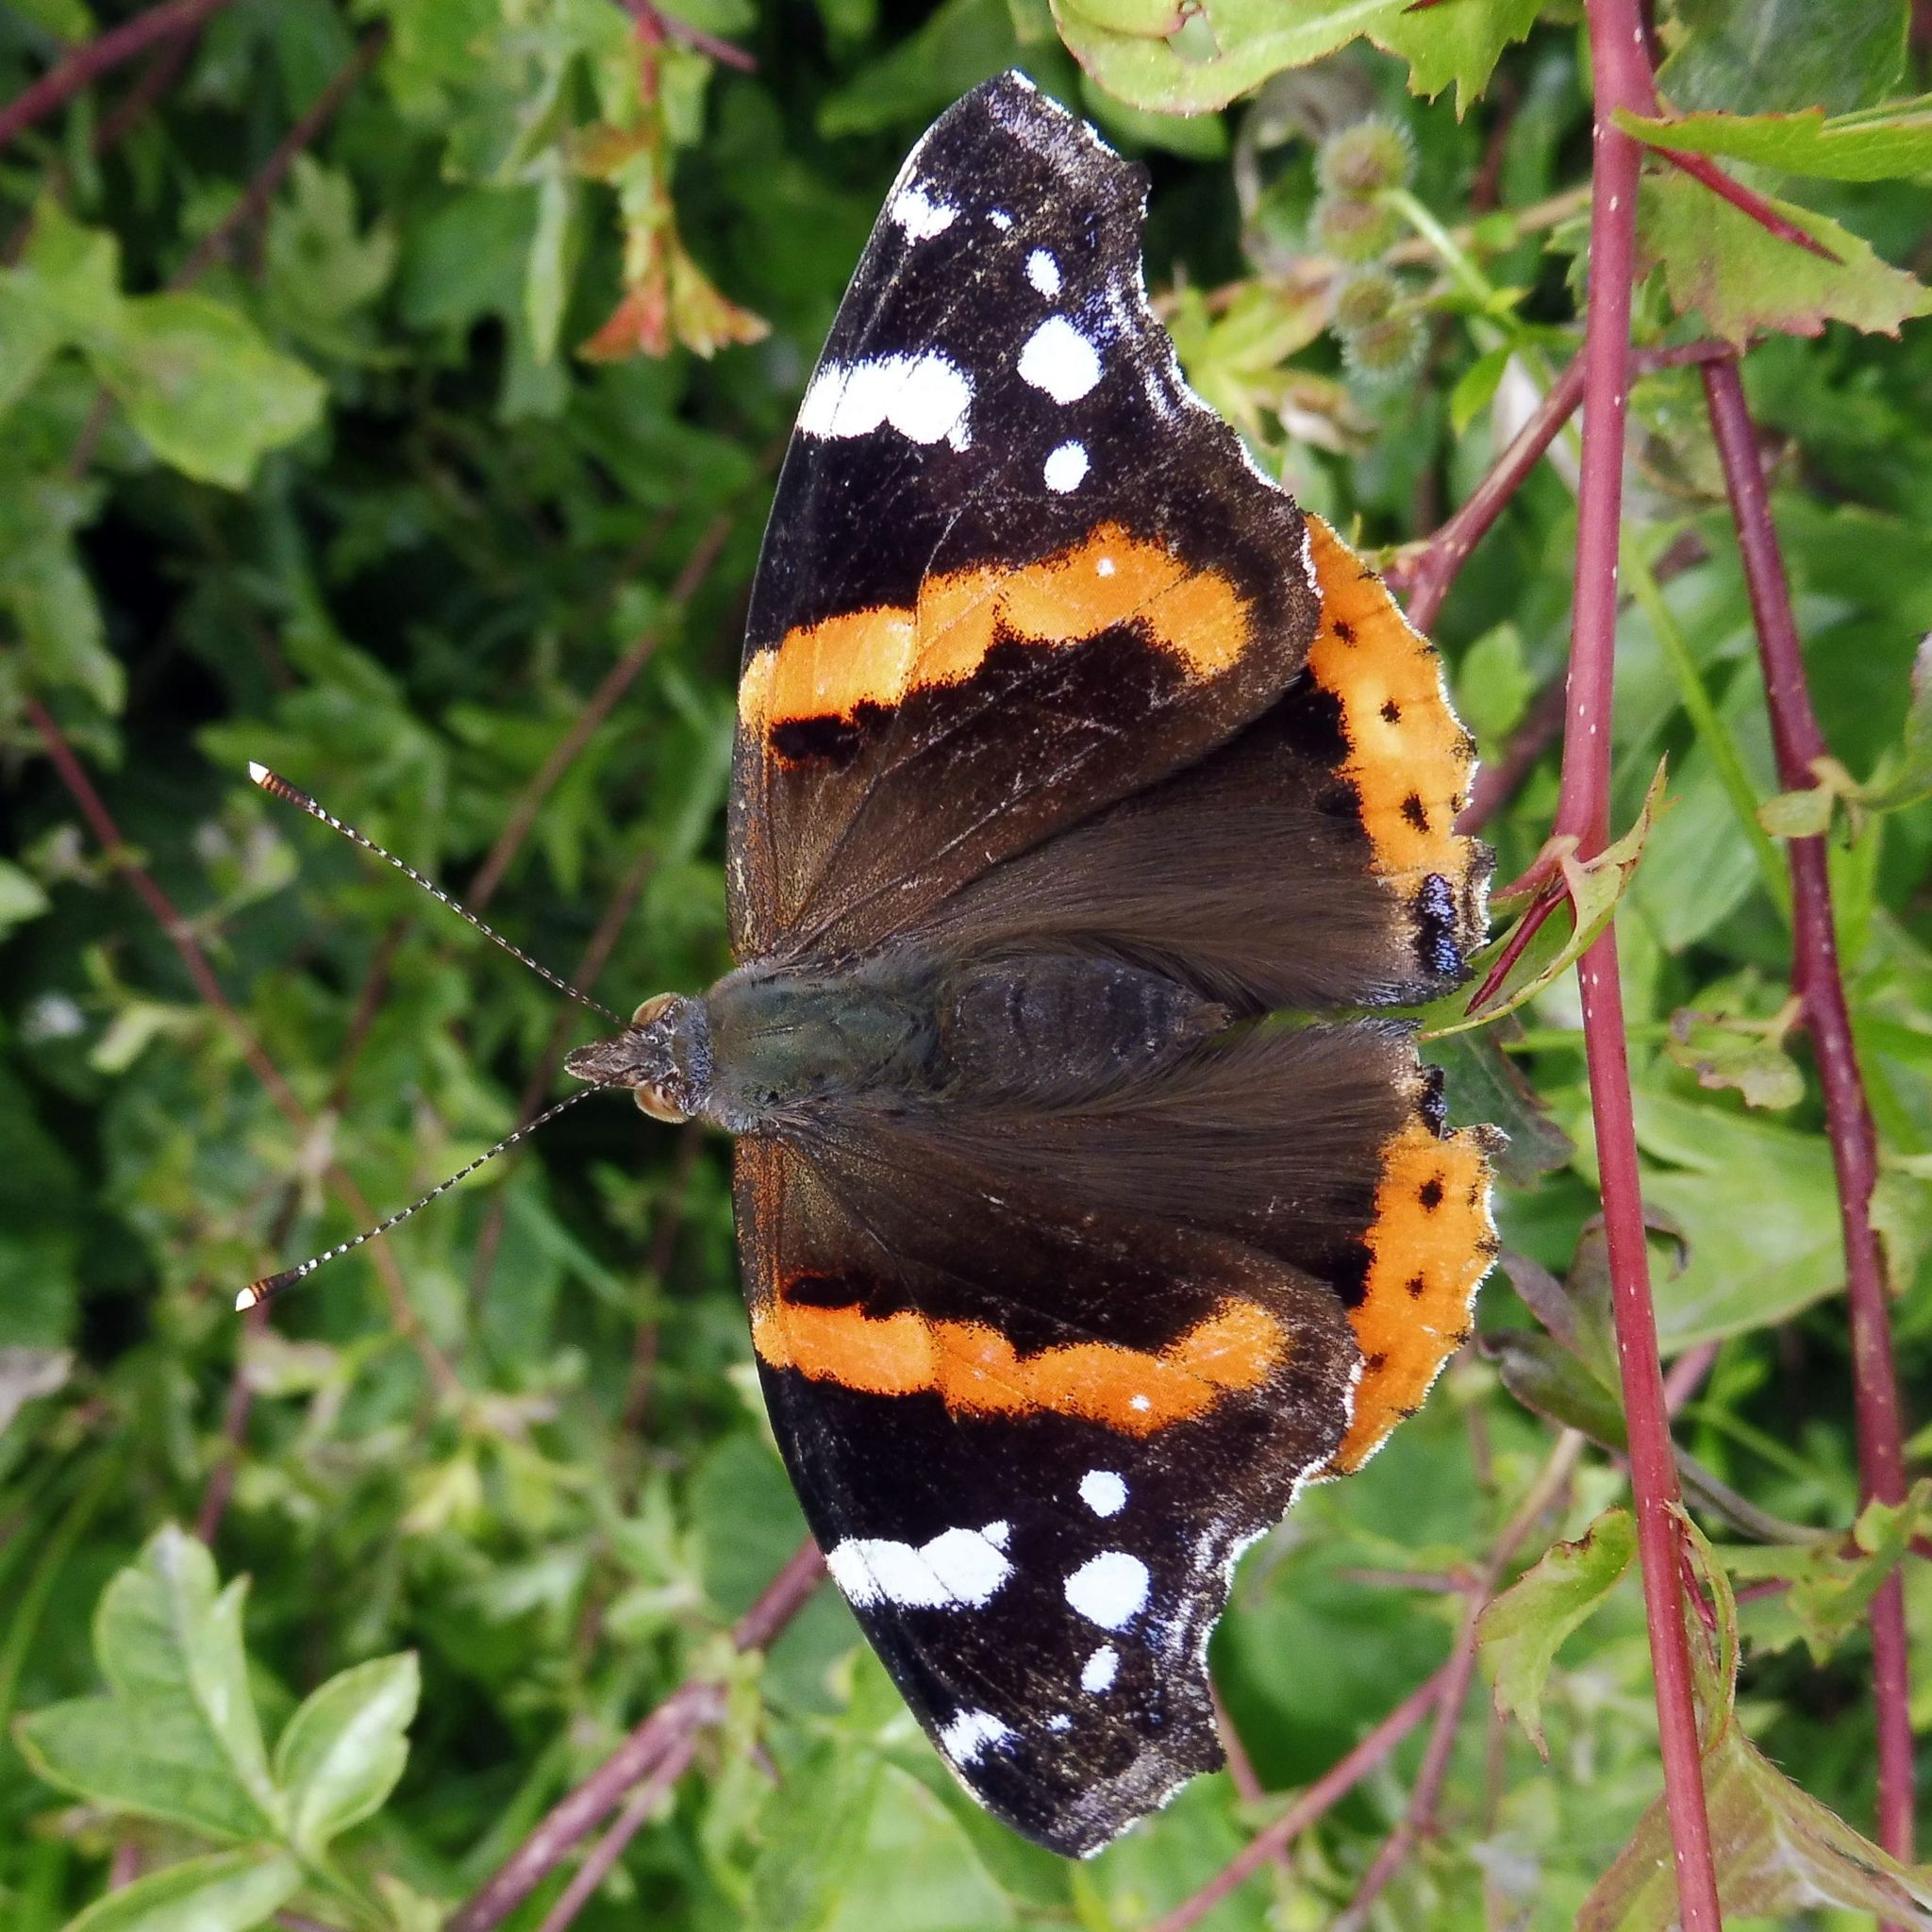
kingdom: Animalia
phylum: Arthropoda
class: Insecta
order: Lepidoptera
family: Nymphalidae
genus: Vanessa
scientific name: Vanessa atalanta
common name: Red admiral
